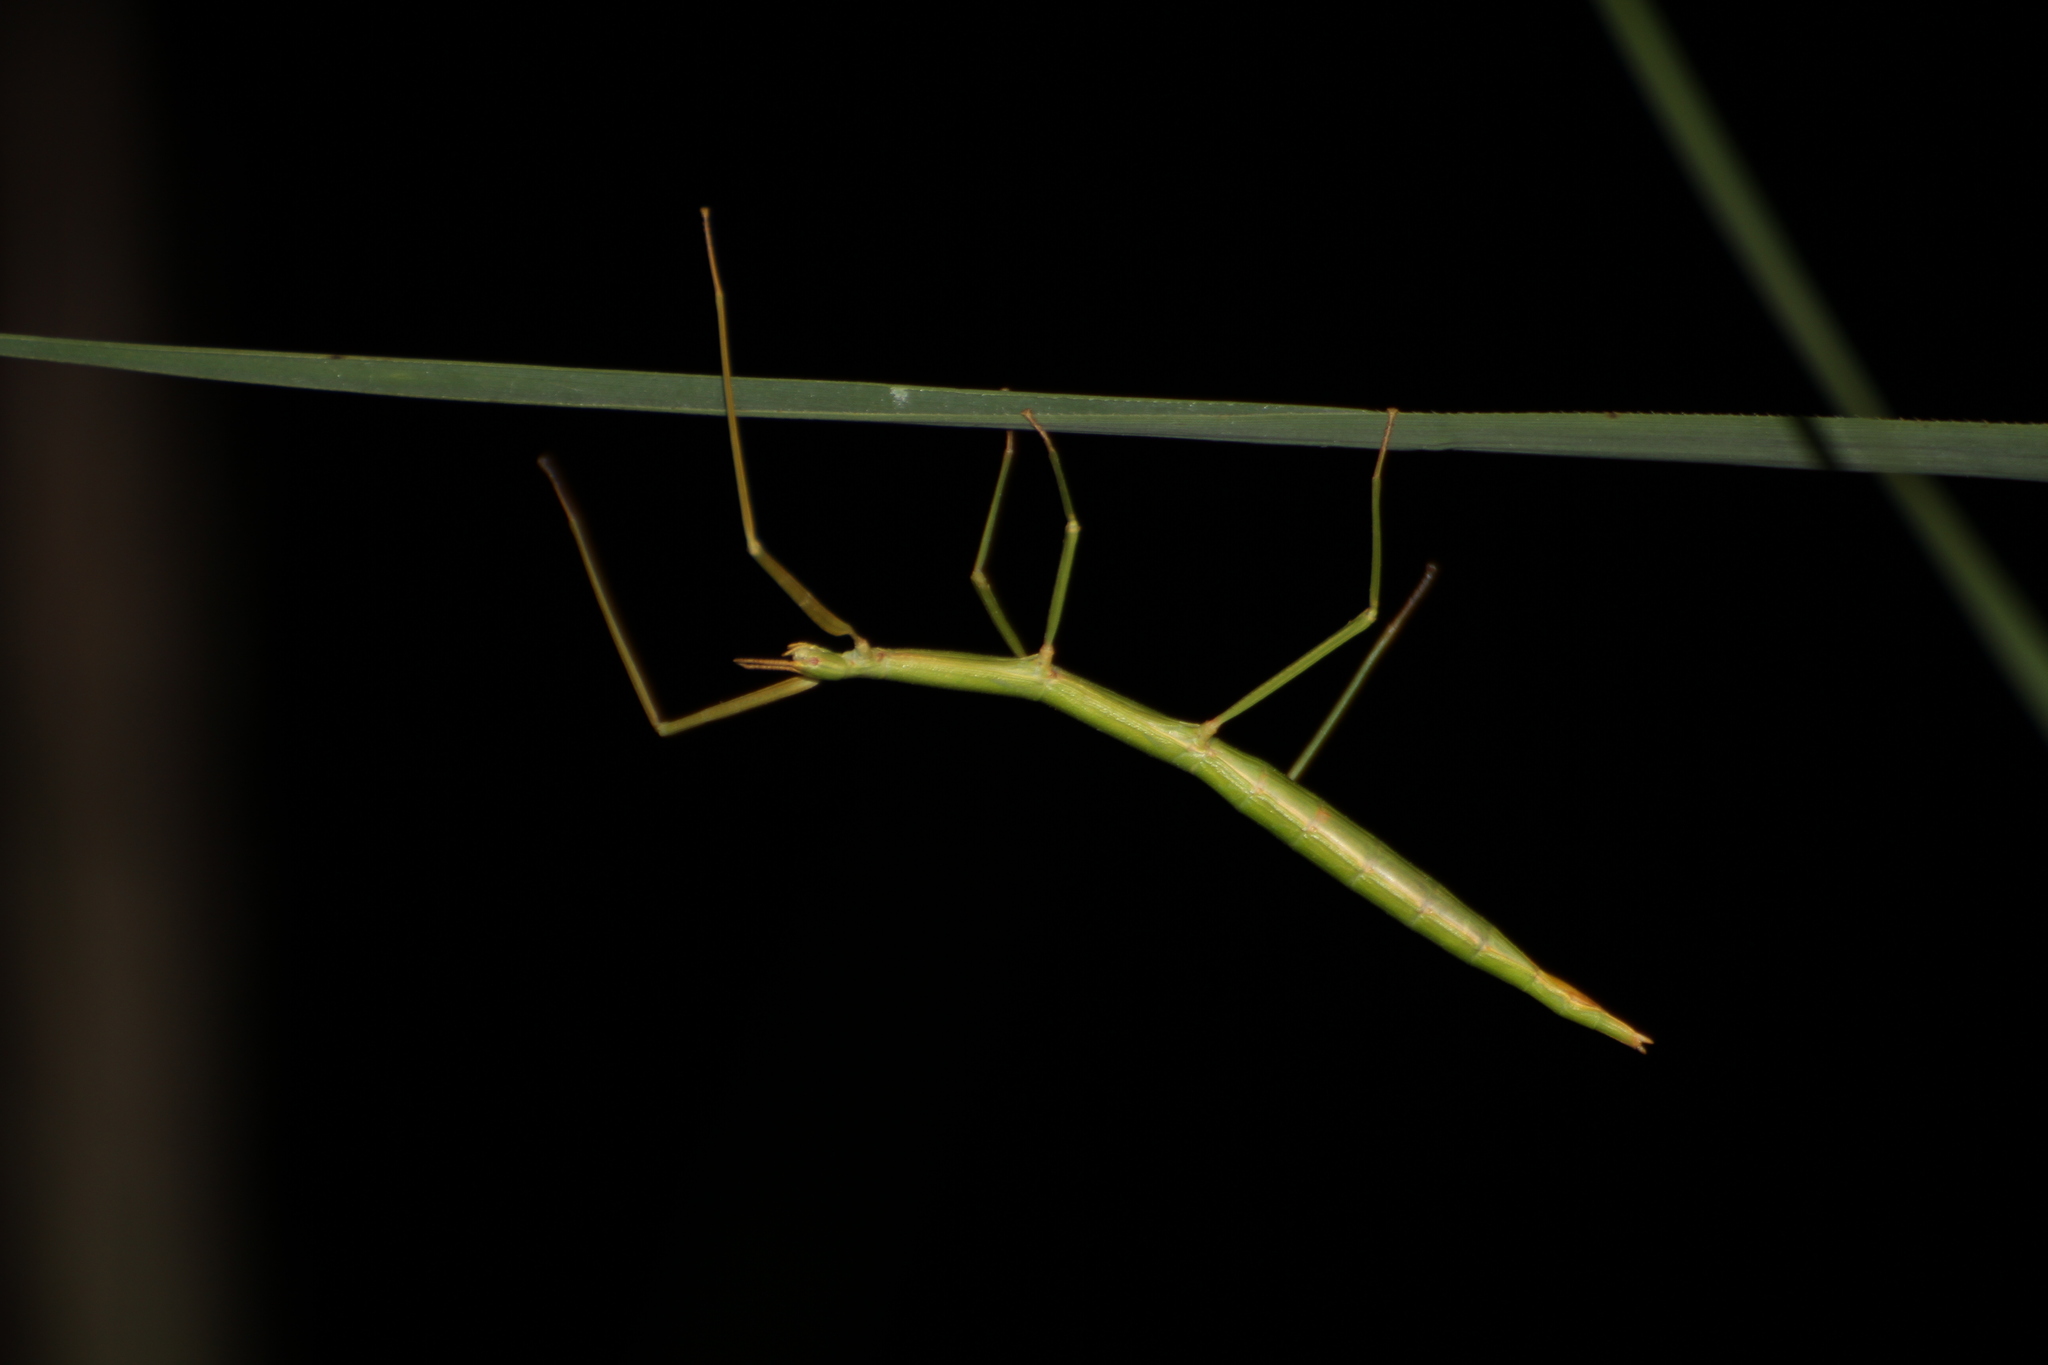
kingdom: Animalia
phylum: Arthropoda
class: Insecta
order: Phasmida
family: Bacillidae
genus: Clonopsis
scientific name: Clonopsis gallica
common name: French stick insect
